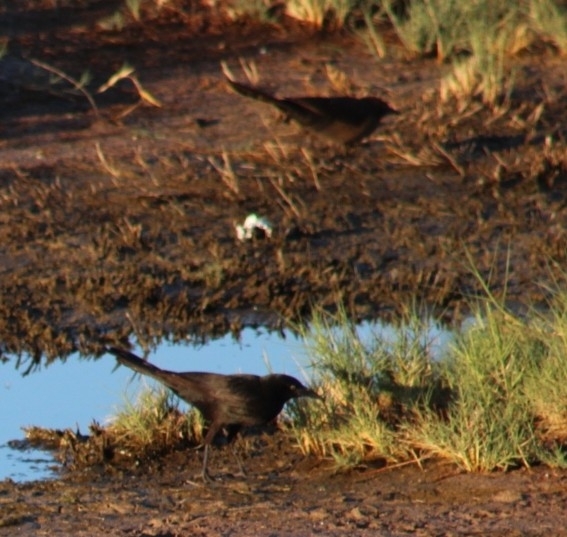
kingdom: Animalia
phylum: Chordata
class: Aves
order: Passeriformes
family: Icteridae
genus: Quiscalus
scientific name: Quiscalus mexicanus
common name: Great-tailed grackle
